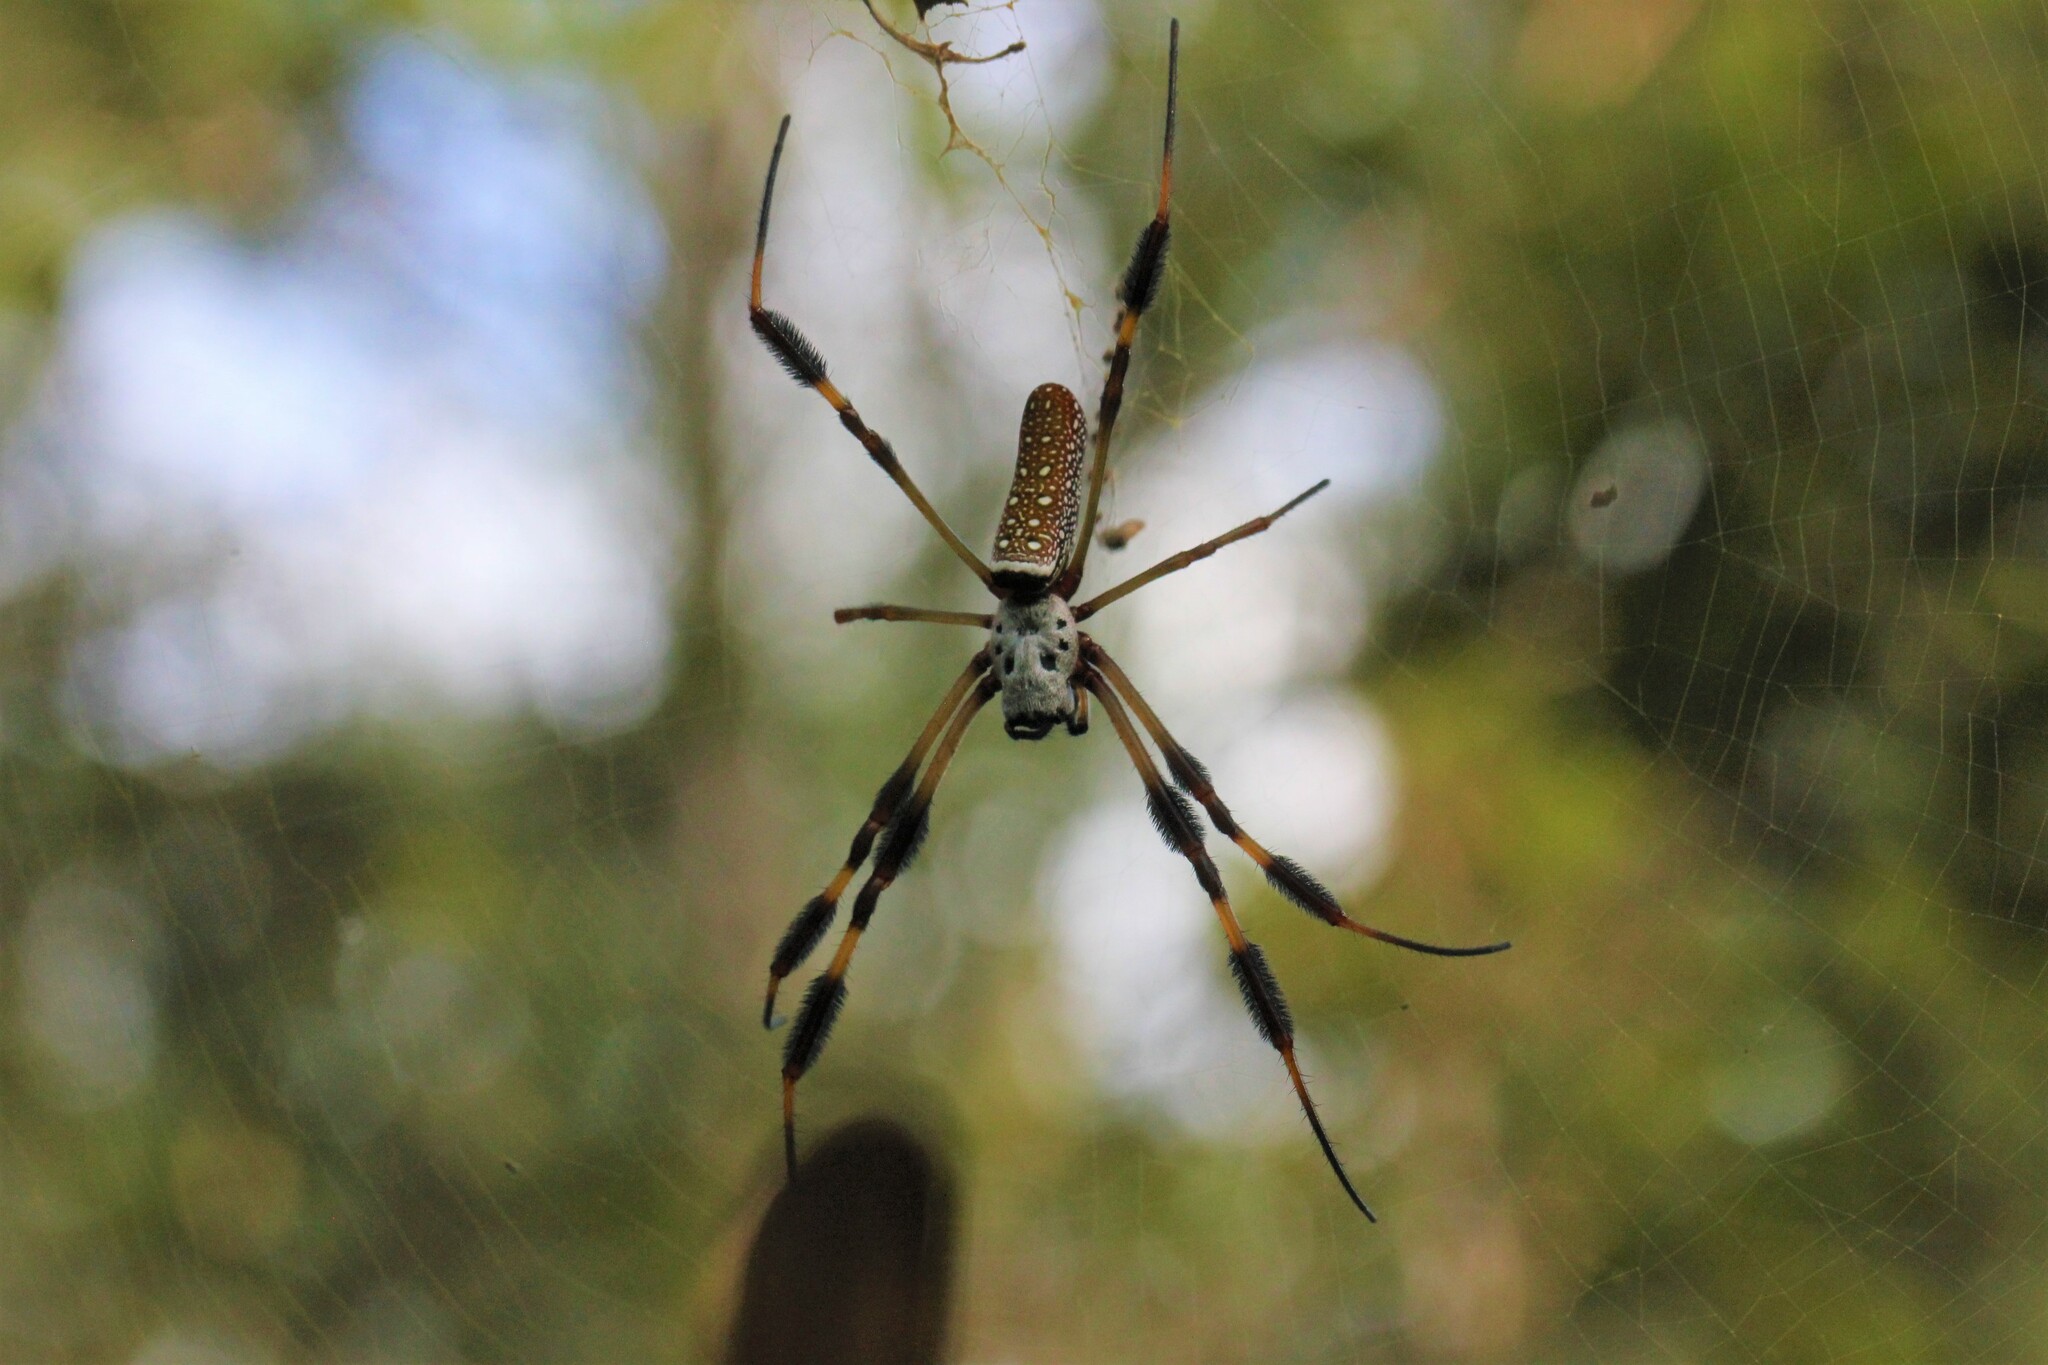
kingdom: Animalia
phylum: Arthropoda
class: Arachnida
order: Araneae
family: Araneidae
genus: Trichonephila
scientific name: Trichonephila clavipes
